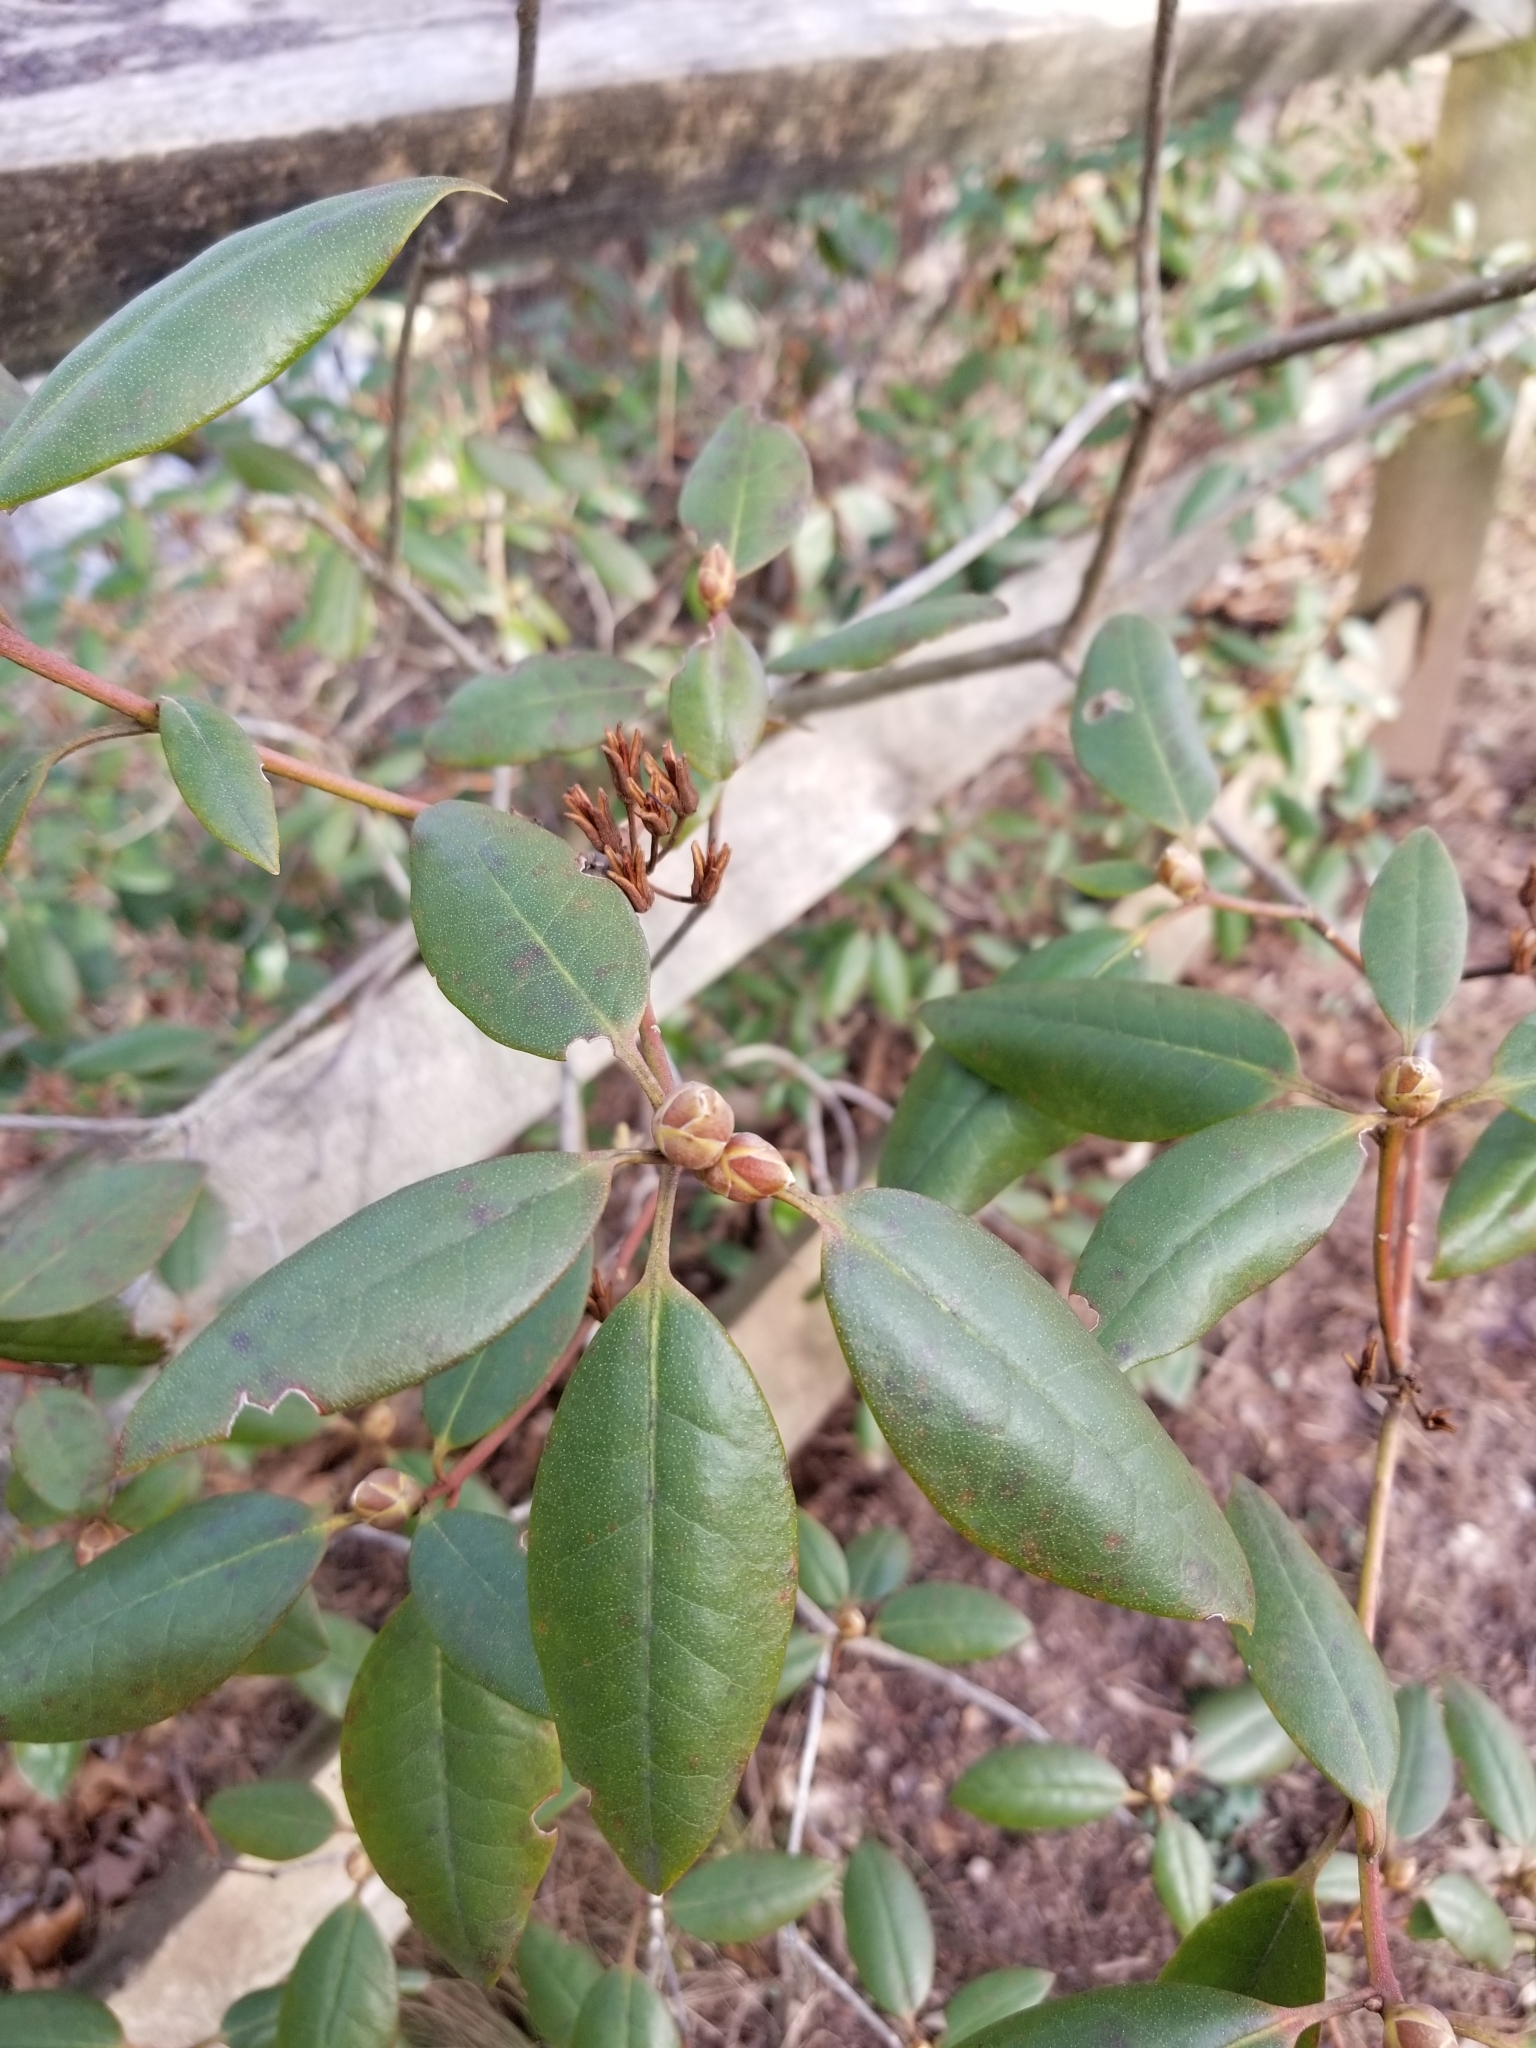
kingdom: Plantae
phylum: Tracheophyta
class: Magnoliopsida
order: Ericales
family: Ericaceae
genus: Rhododendron
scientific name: Rhododendron maximum
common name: Great rhododendron
